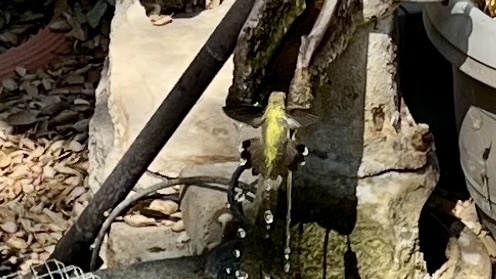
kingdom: Animalia
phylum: Chordata
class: Aves
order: Apodiformes
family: Trochilidae
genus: Calypte
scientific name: Calypte anna
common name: Anna's hummingbird
